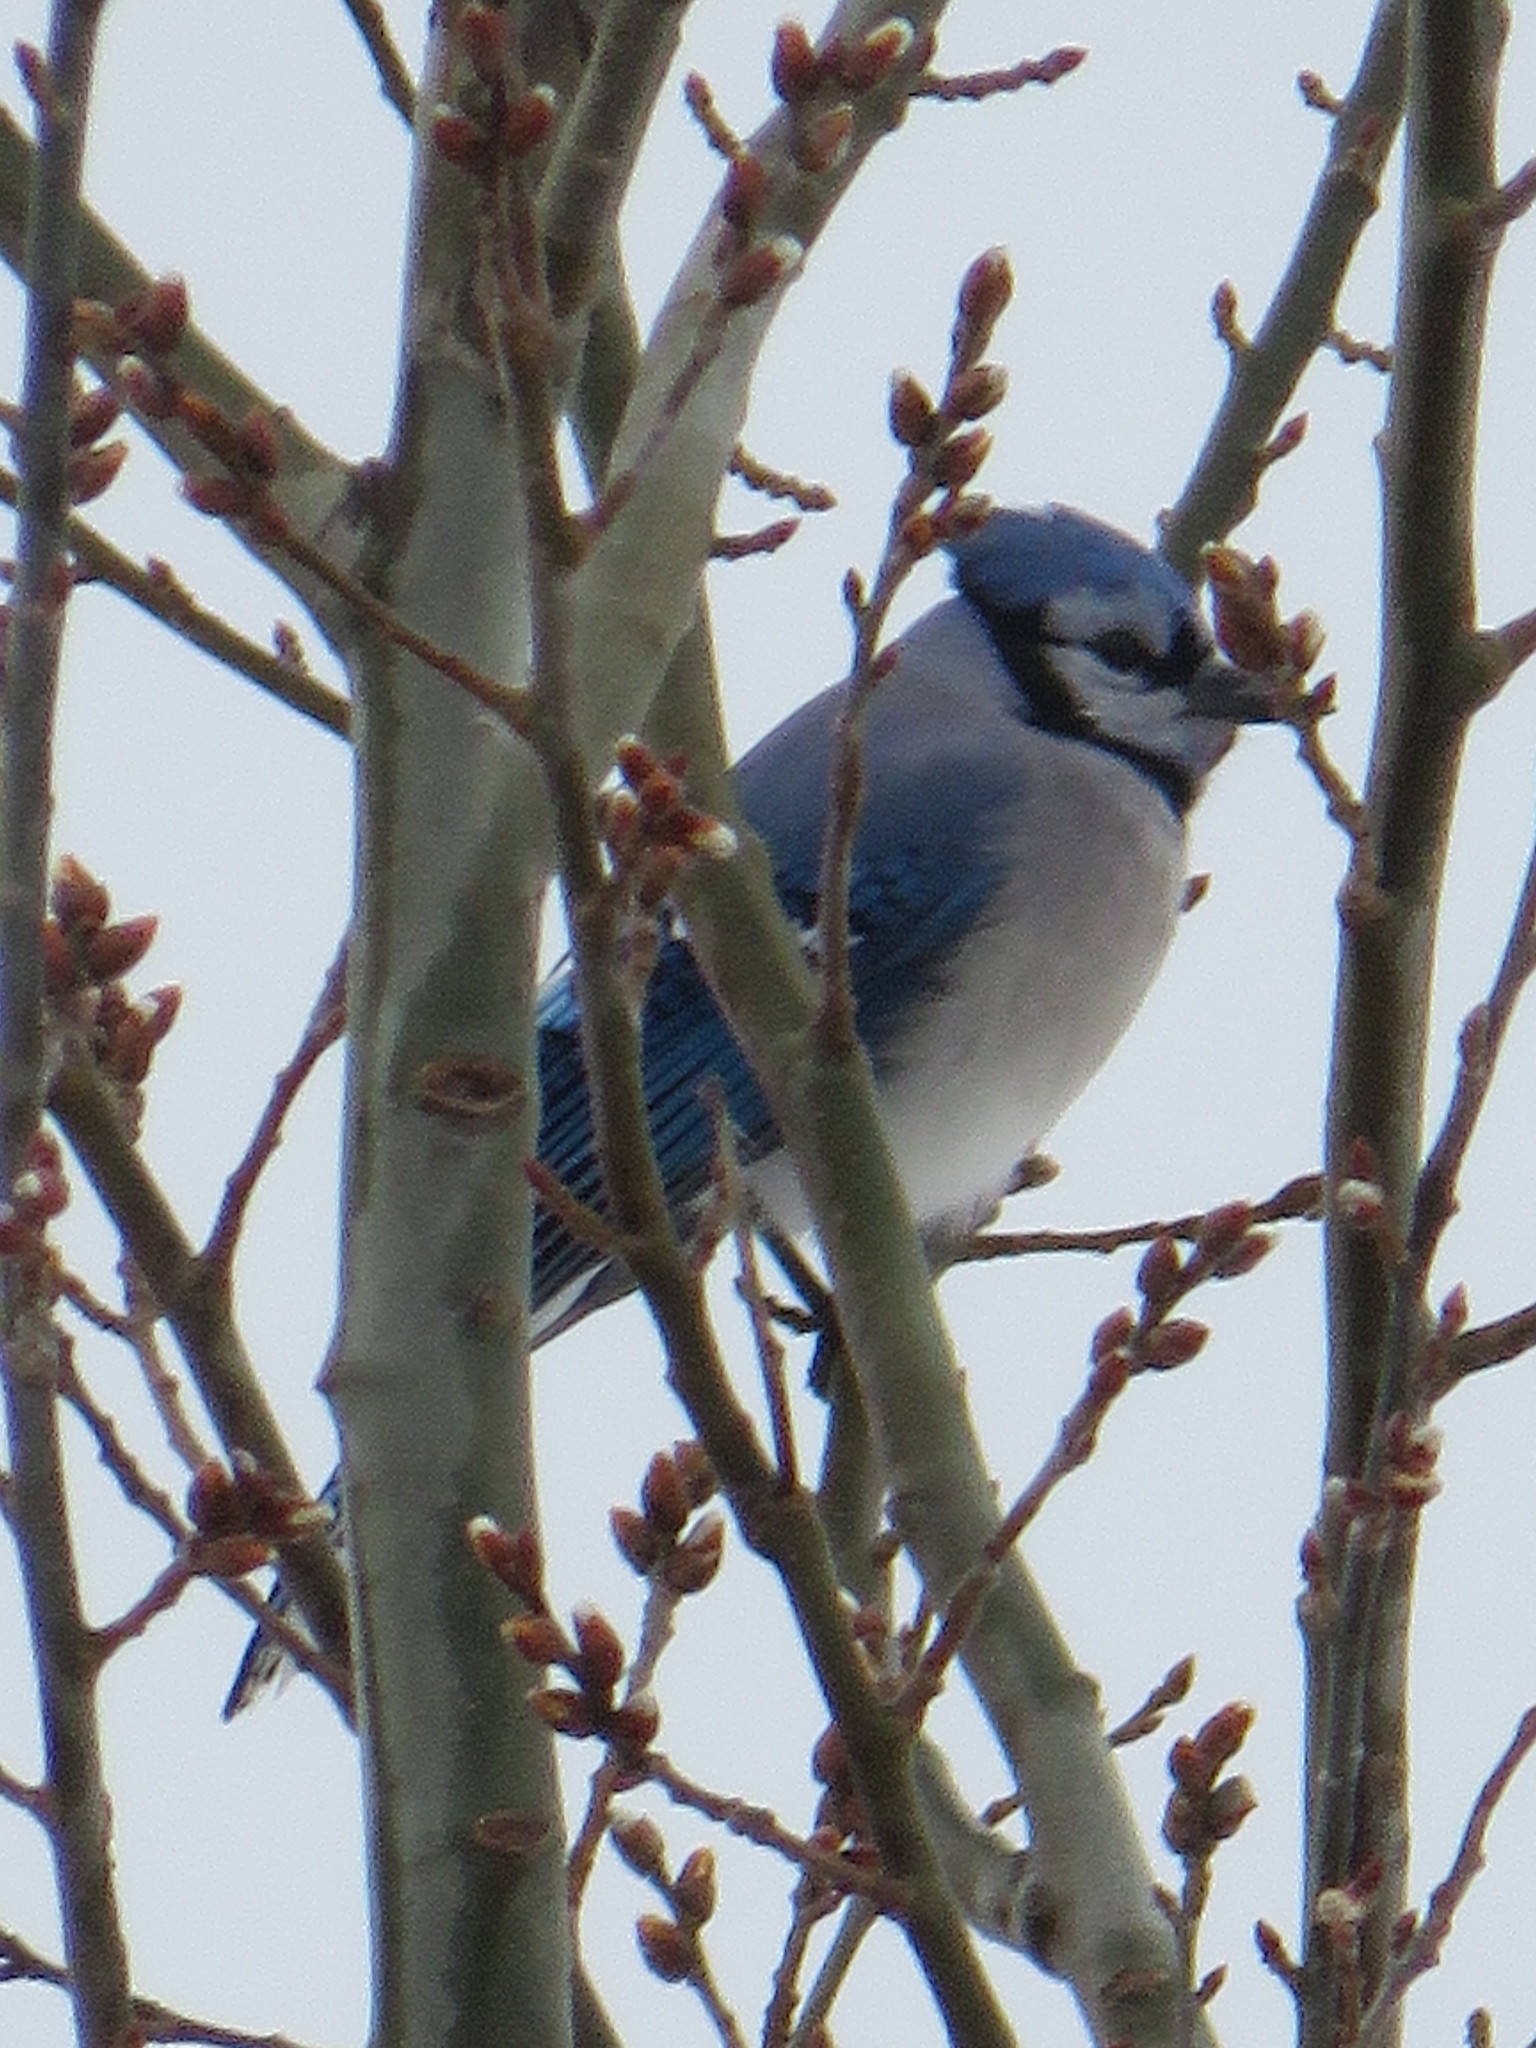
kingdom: Animalia
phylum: Chordata
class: Aves
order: Passeriformes
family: Corvidae
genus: Cyanocitta
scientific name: Cyanocitta cristata
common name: Blue jay
